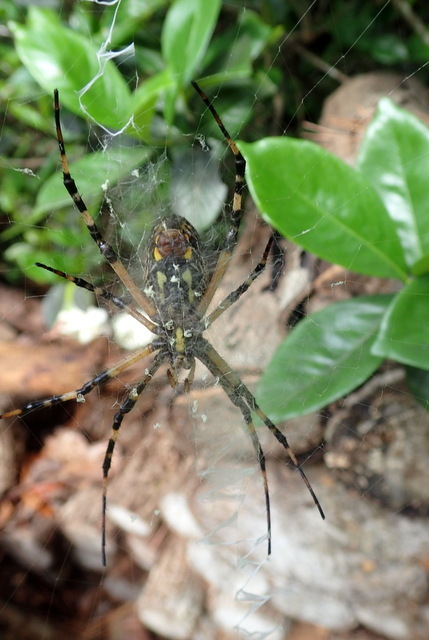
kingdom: Animalia
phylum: Arthropoda
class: Arachnida
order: Araneae
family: Araneidae
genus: Argiope
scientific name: Argiope aurantia
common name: Orb weavers
